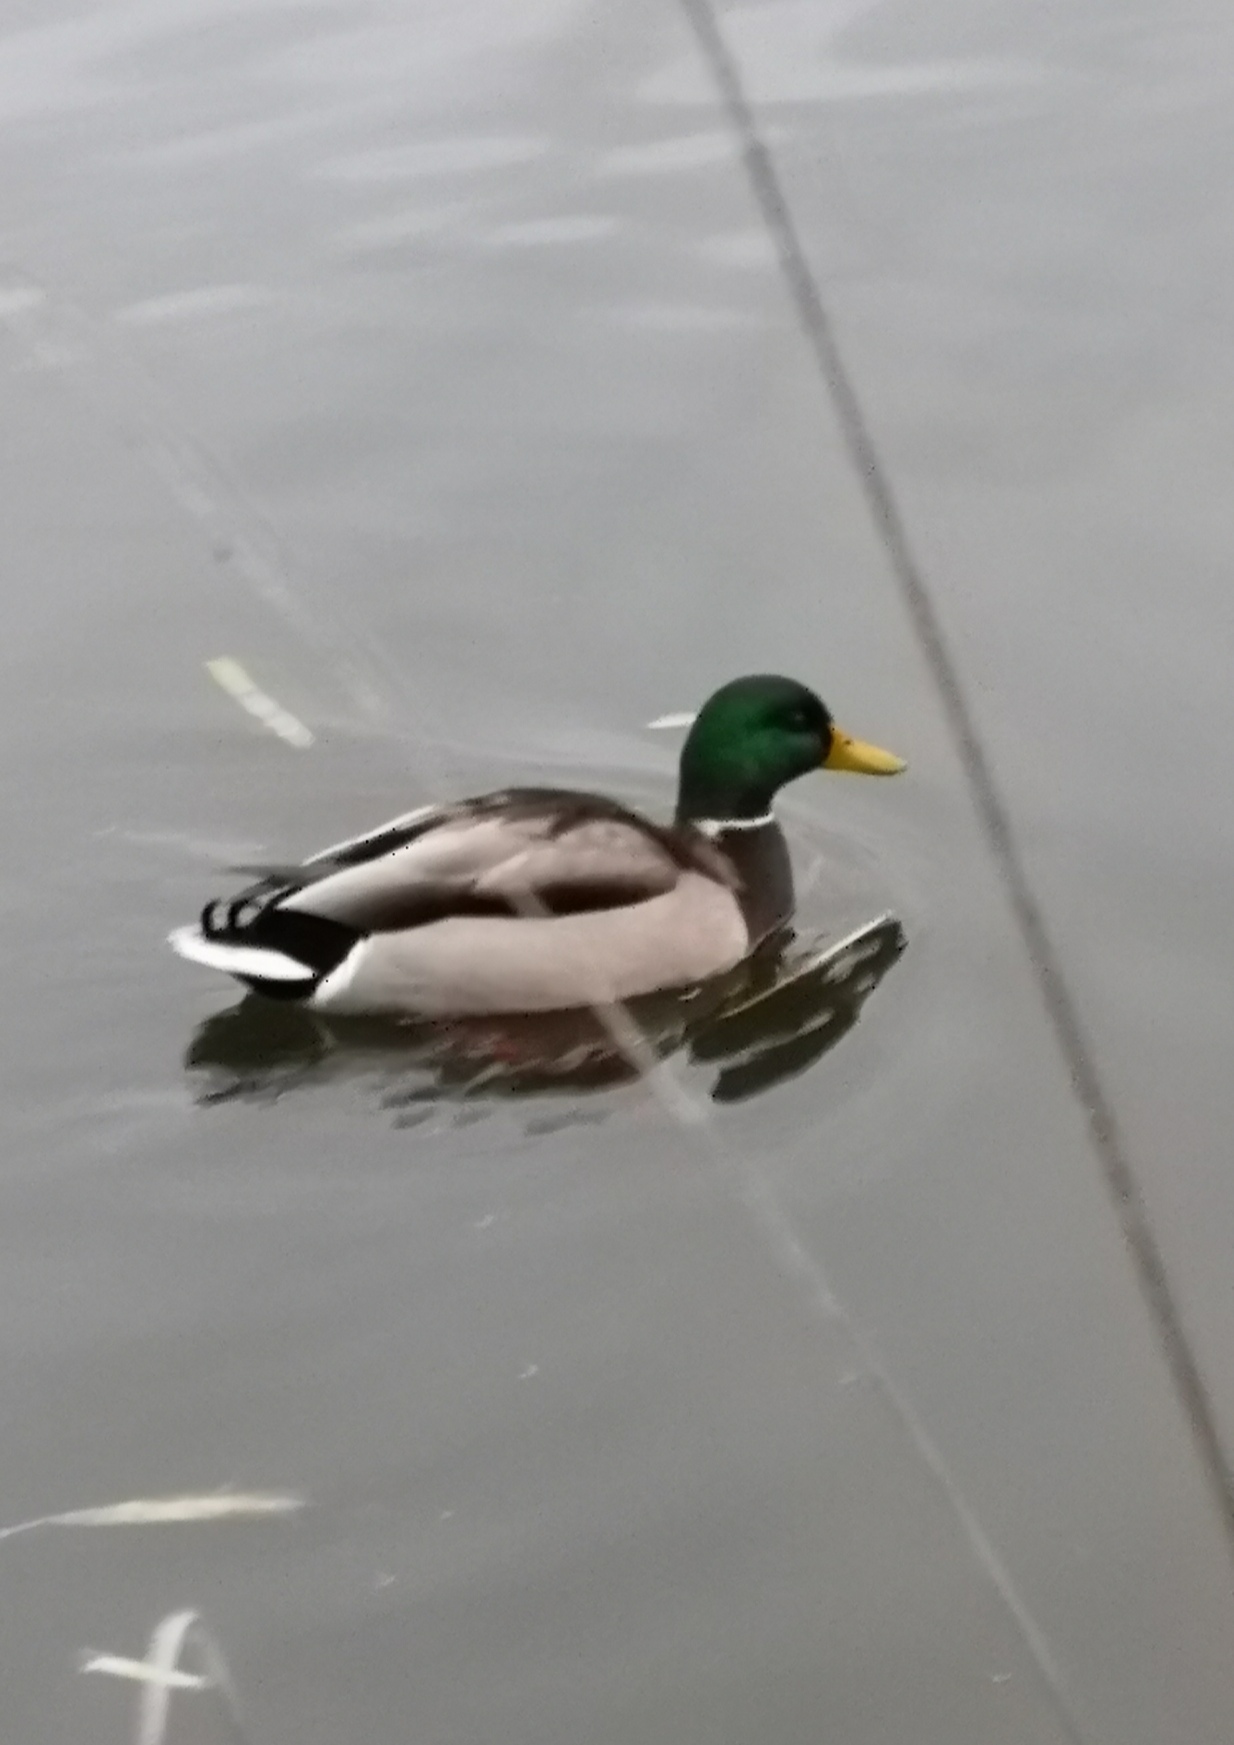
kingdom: Animalia
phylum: Chordata
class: Aves
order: Anseriformes
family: Anatidae
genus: Anas
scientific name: Anas platyrhynchos
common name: Mallard
